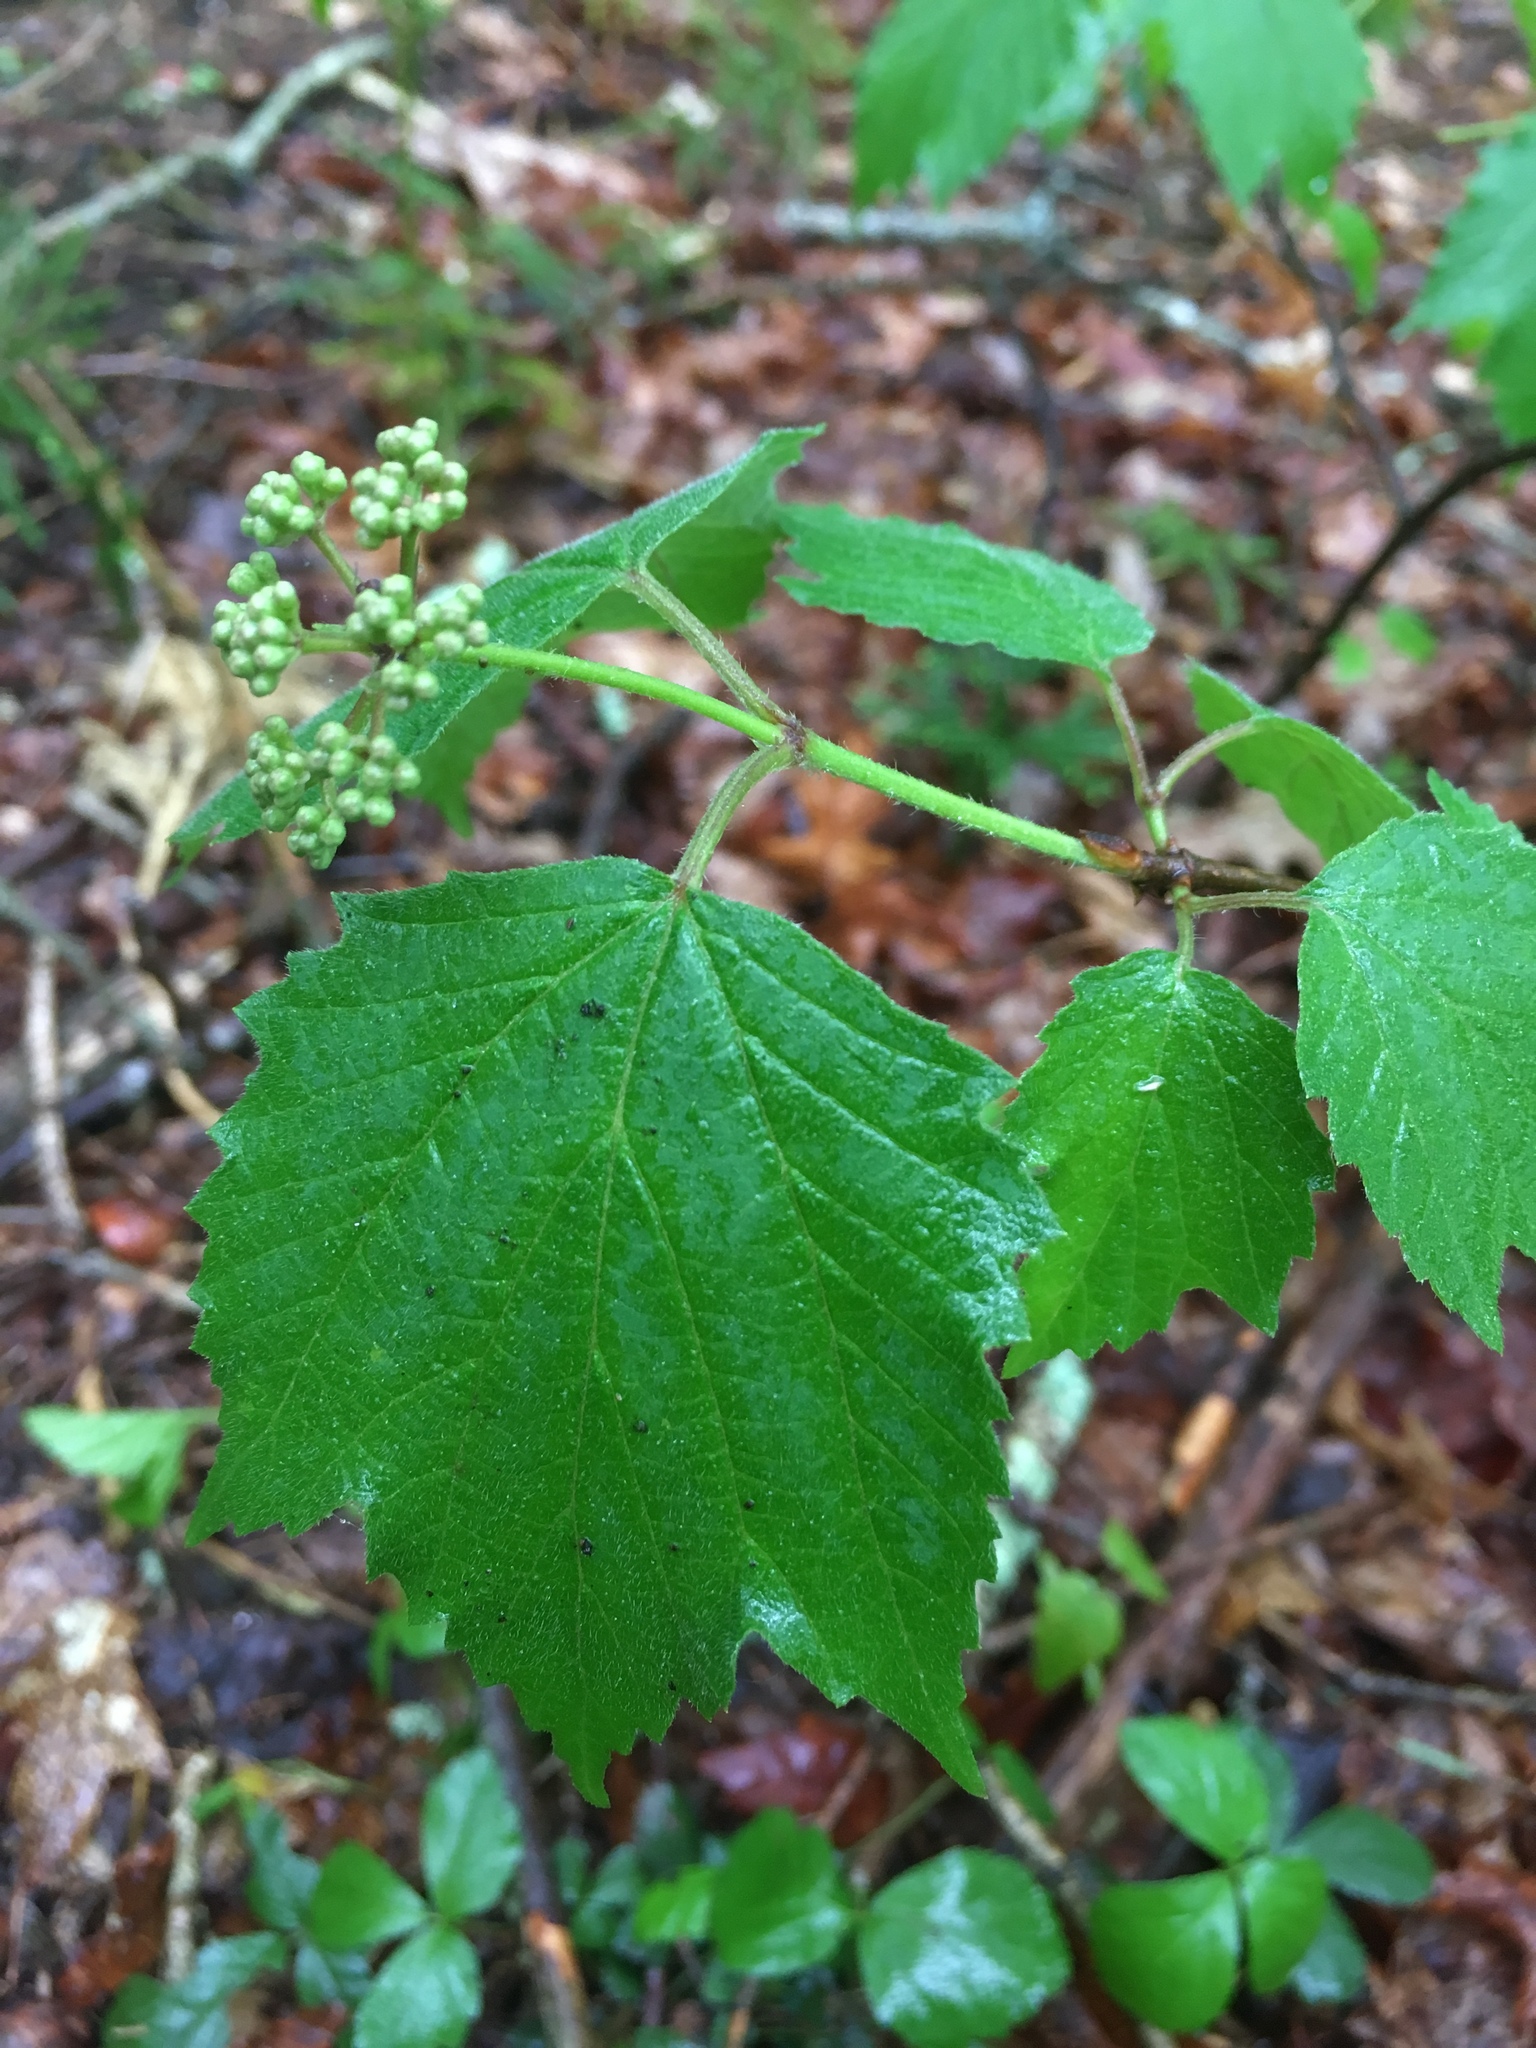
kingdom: Plantae
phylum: Tracheophyta
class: Magnoliopsida
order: Dipsacales
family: Viburnaceae
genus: Viburnum
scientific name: Viburnum acerifolium
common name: Dockmackie
